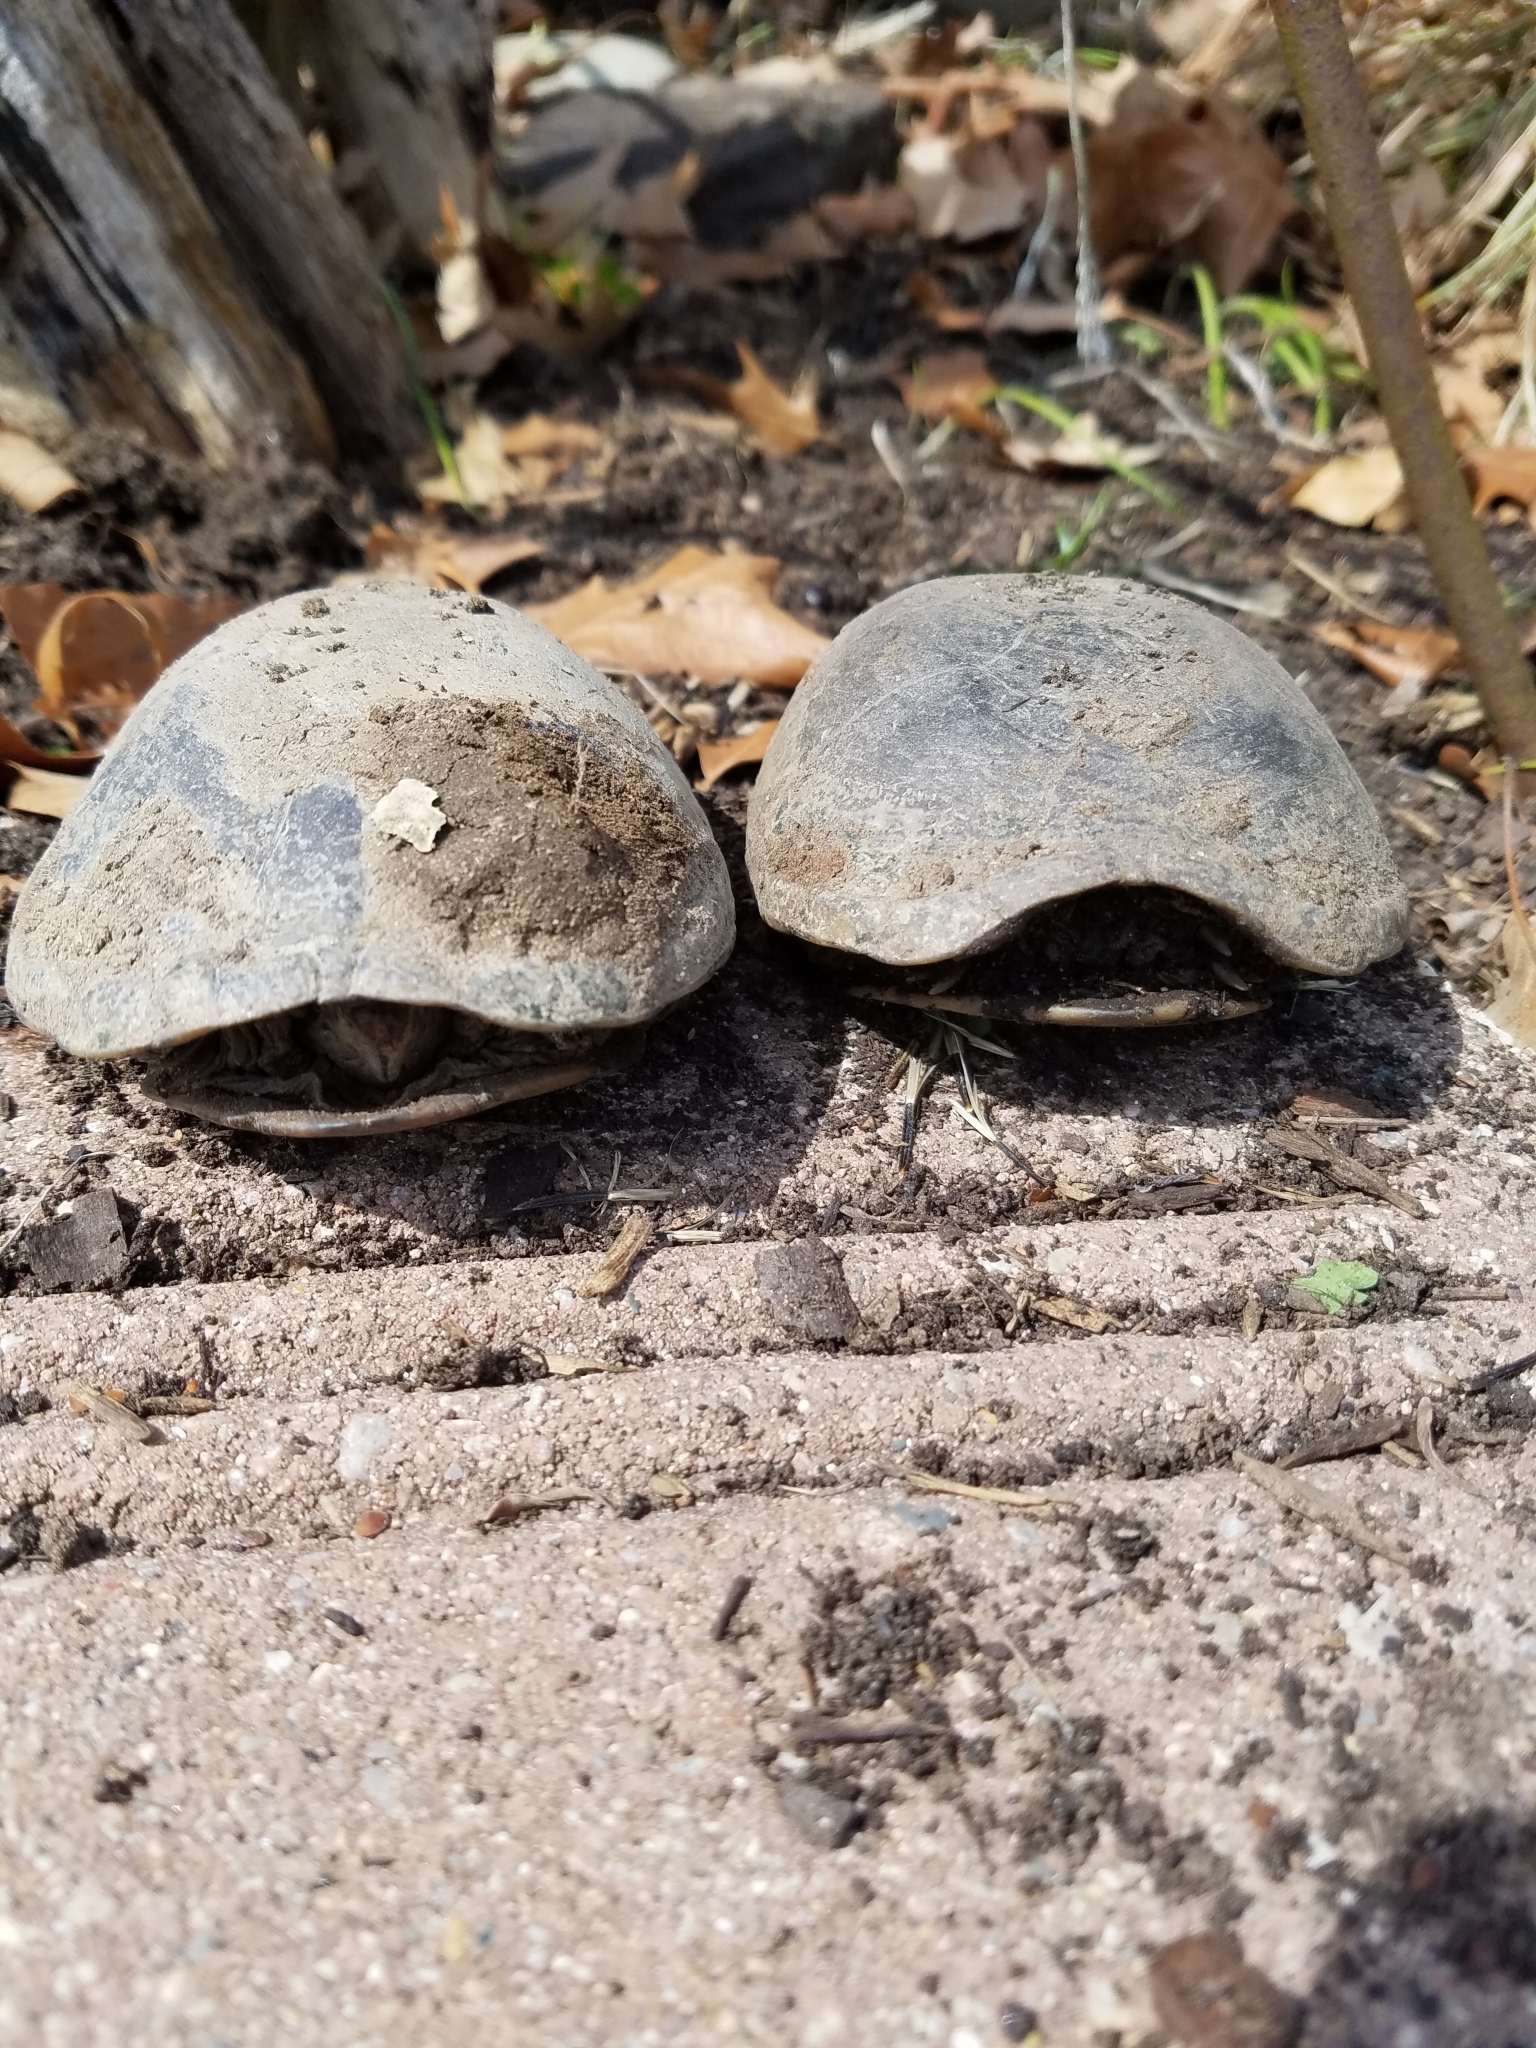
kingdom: Animalia
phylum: Chordata
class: Testudines
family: Kinosternidae
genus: Kinosternon
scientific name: Kinosternon subrubrum
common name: Eastern mud turtle
